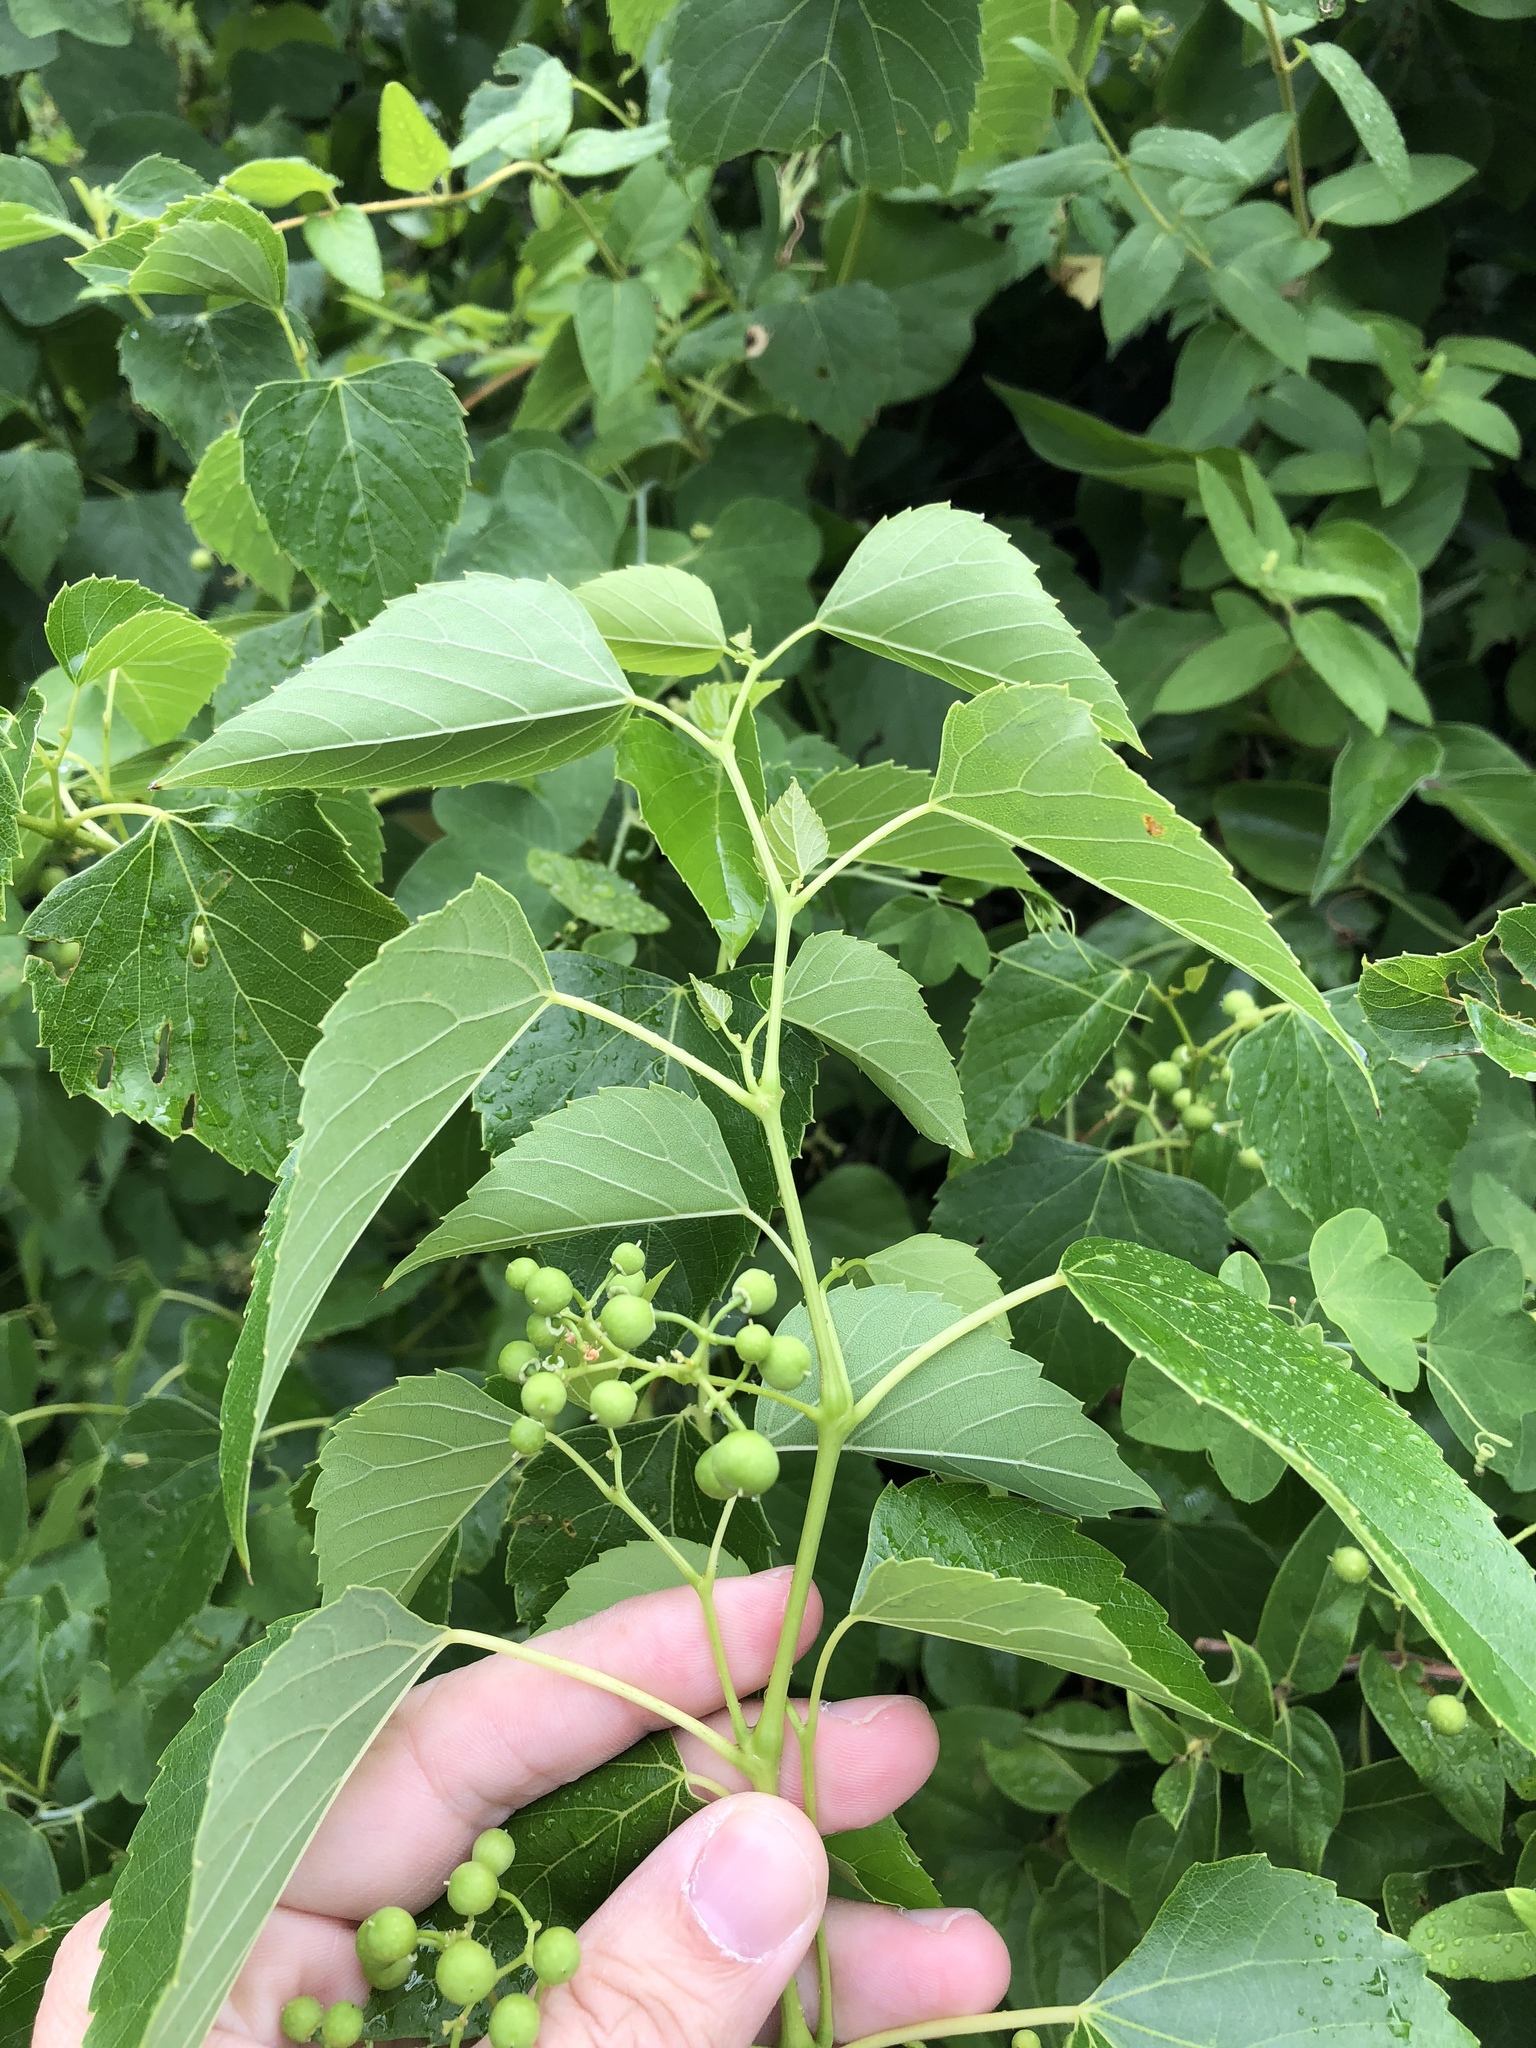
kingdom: Plantae
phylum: Tracheophyta
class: Magnoliopsida
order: Vitales
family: Vitaceae
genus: Ampelopsis
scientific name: Ampelopsis cordata
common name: Heart-leaf ampelopsis
